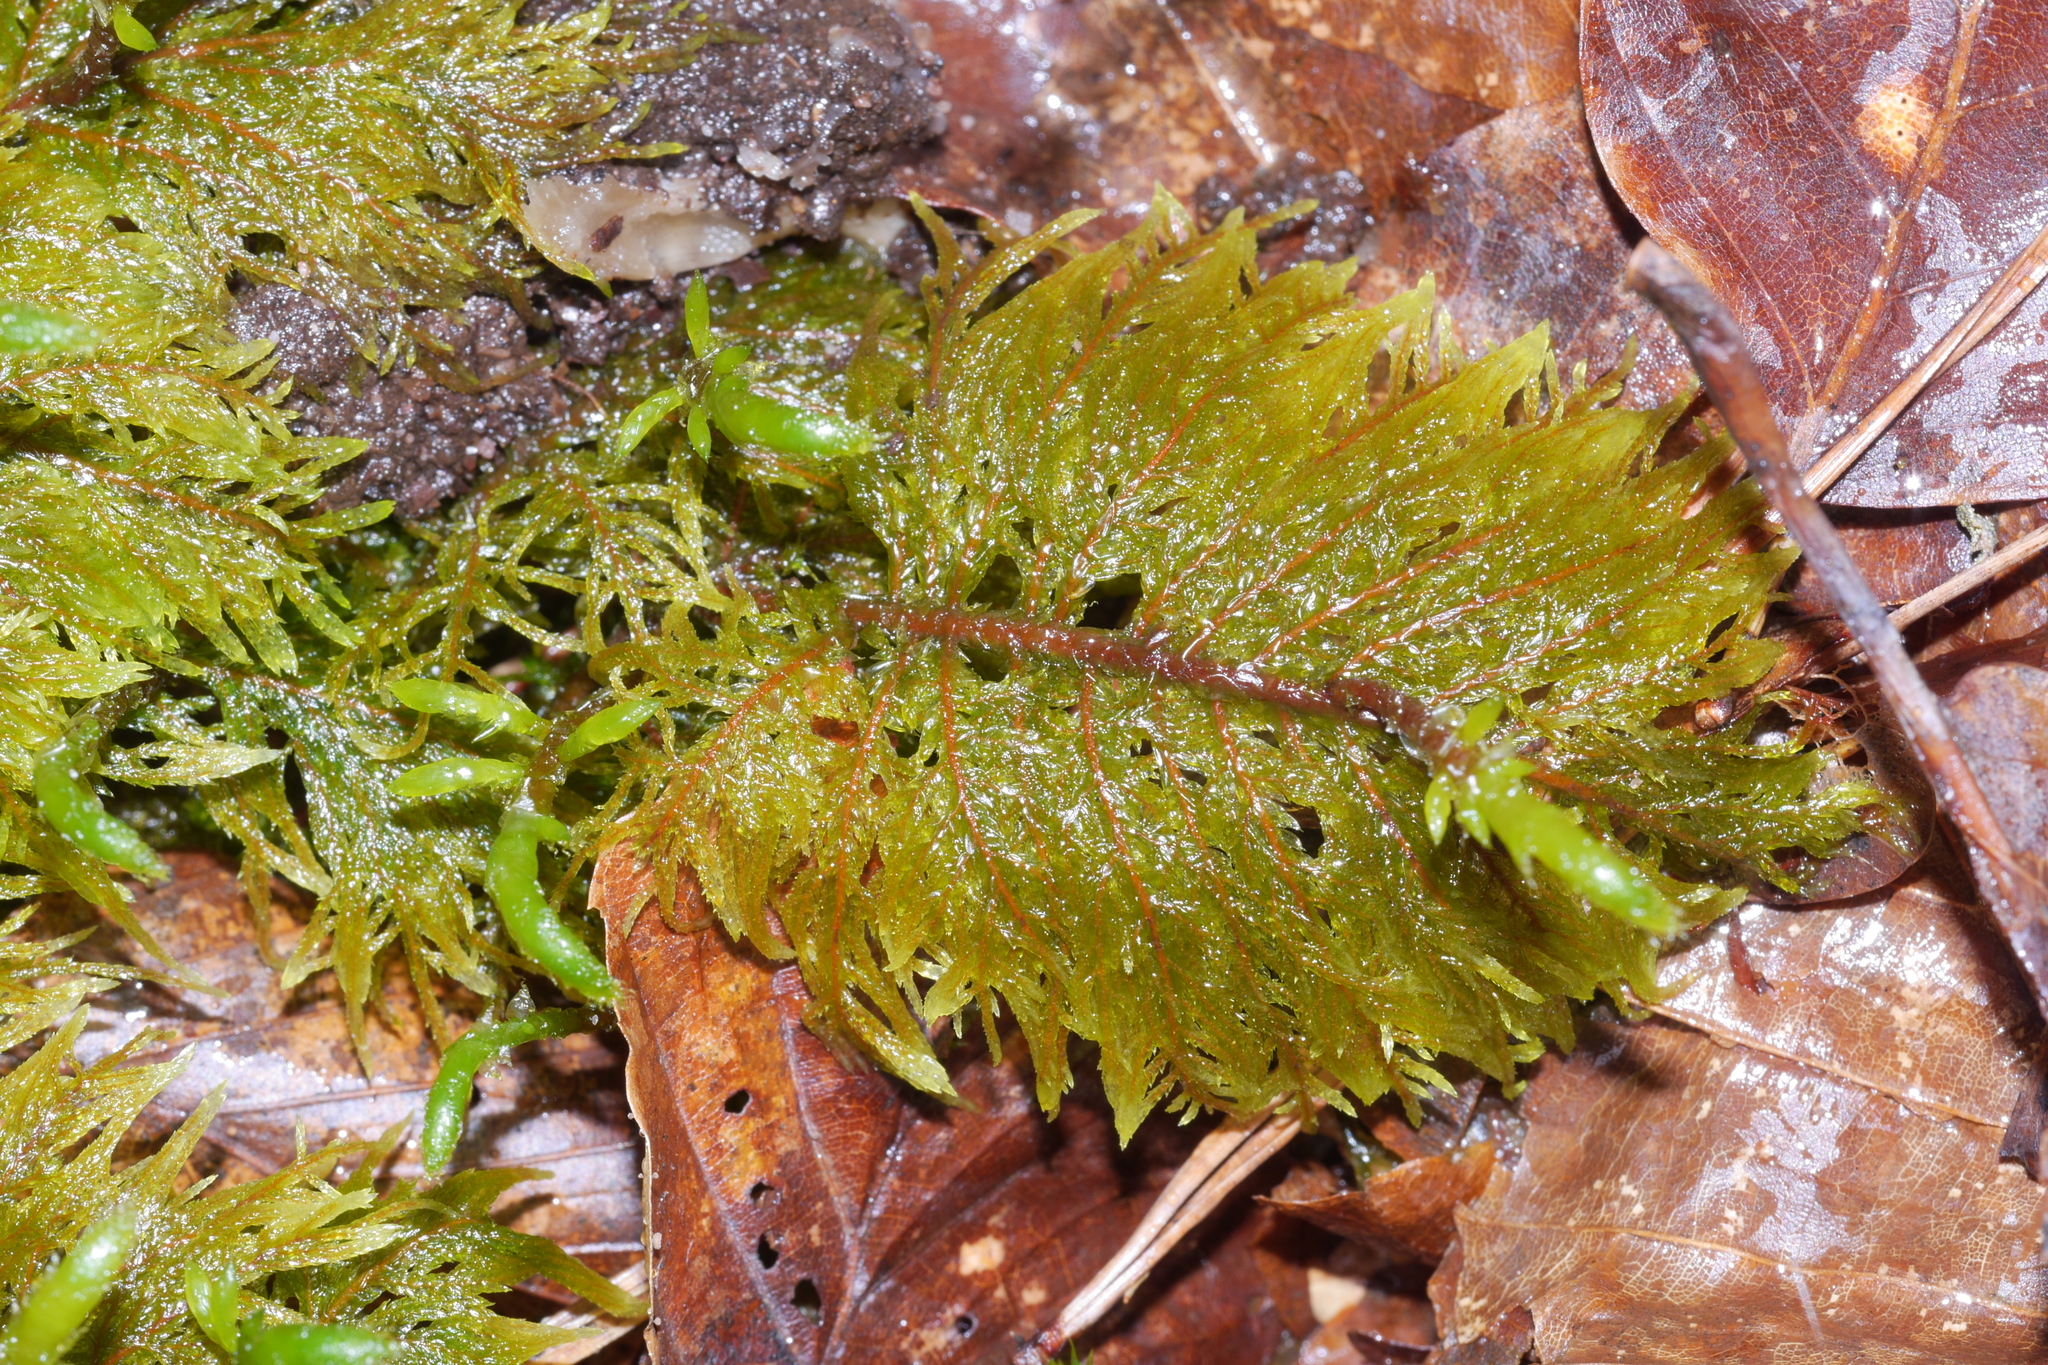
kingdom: Plantae
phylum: Bryophyta
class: Bryopsida
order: Hypnales
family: Hylocomiaceae
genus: Hylocomium
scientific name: Hylocomium splendens
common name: Stairstep moss
